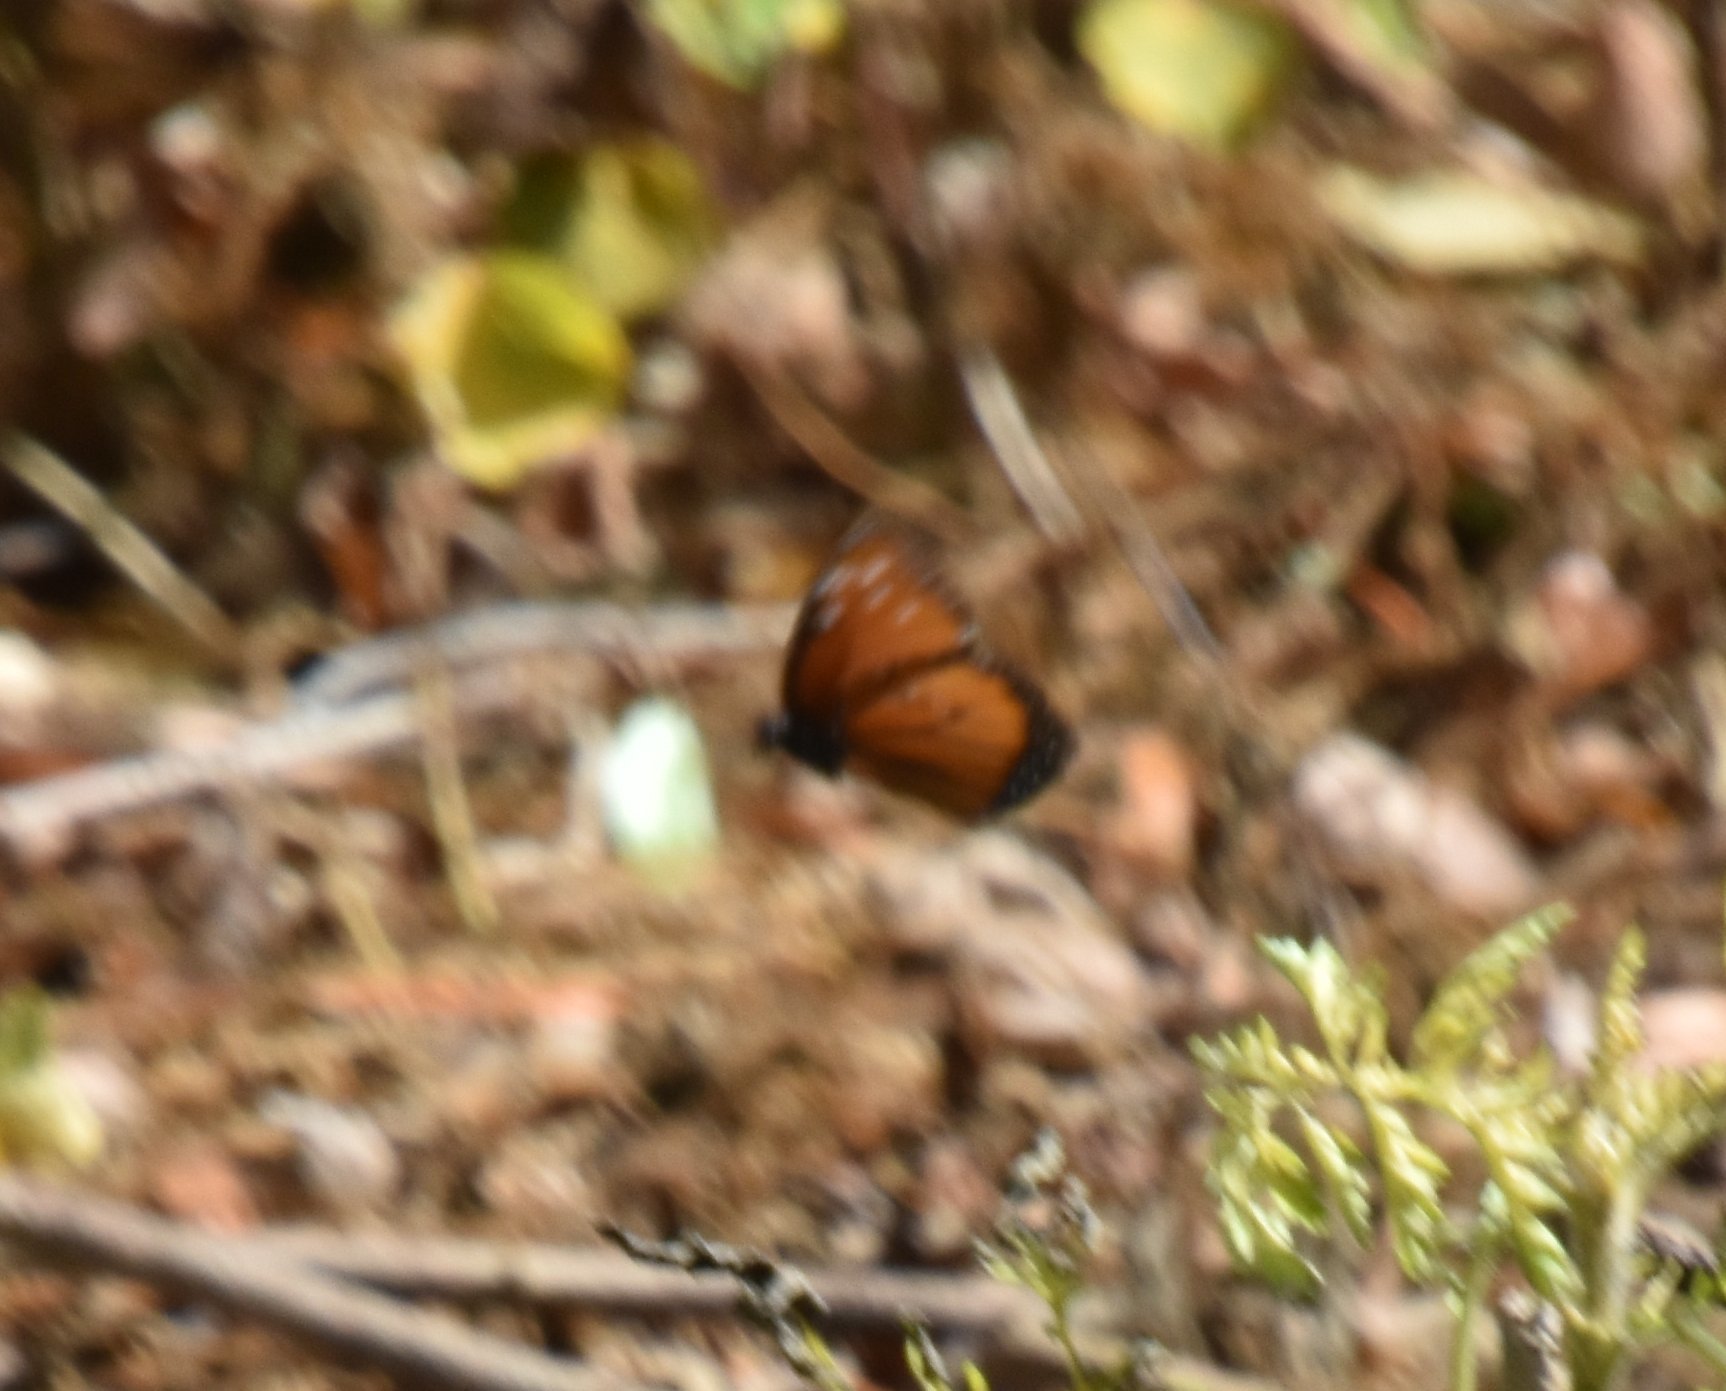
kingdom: Animalia
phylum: Arthropoda
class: Insecta
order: Lepidoptera
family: Nymphalidae
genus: Danaus
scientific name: Danaus gilippus
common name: Queen
